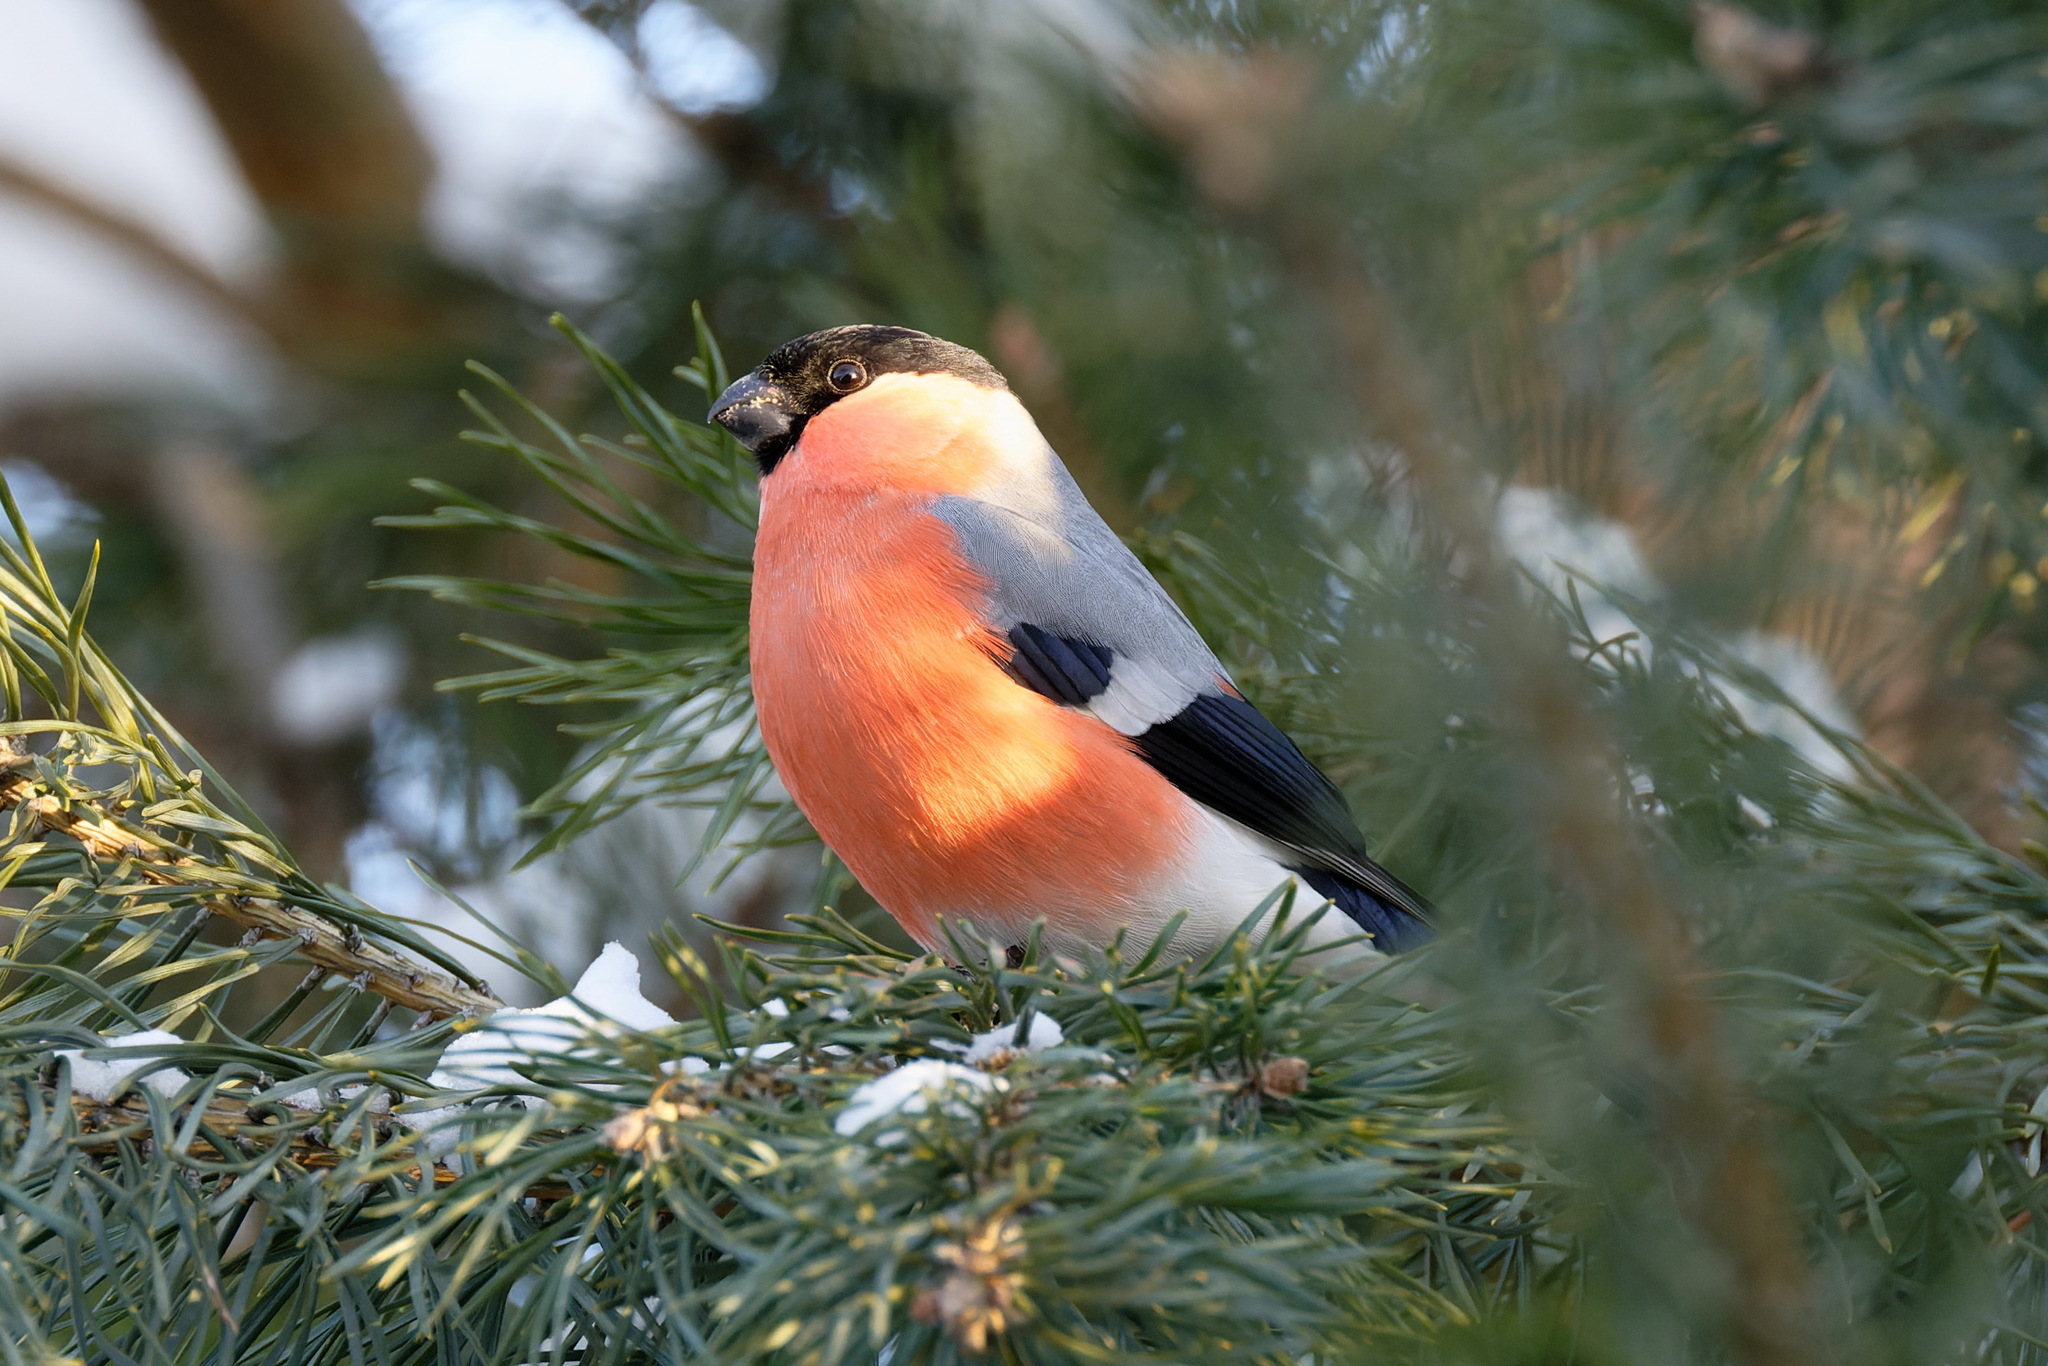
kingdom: Animalia
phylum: Chordata
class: Aves
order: Passeriformes
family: Fringillidae
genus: Pyrrhula
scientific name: Pyrrhula pyrrhula
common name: Eurasian bullfinch
